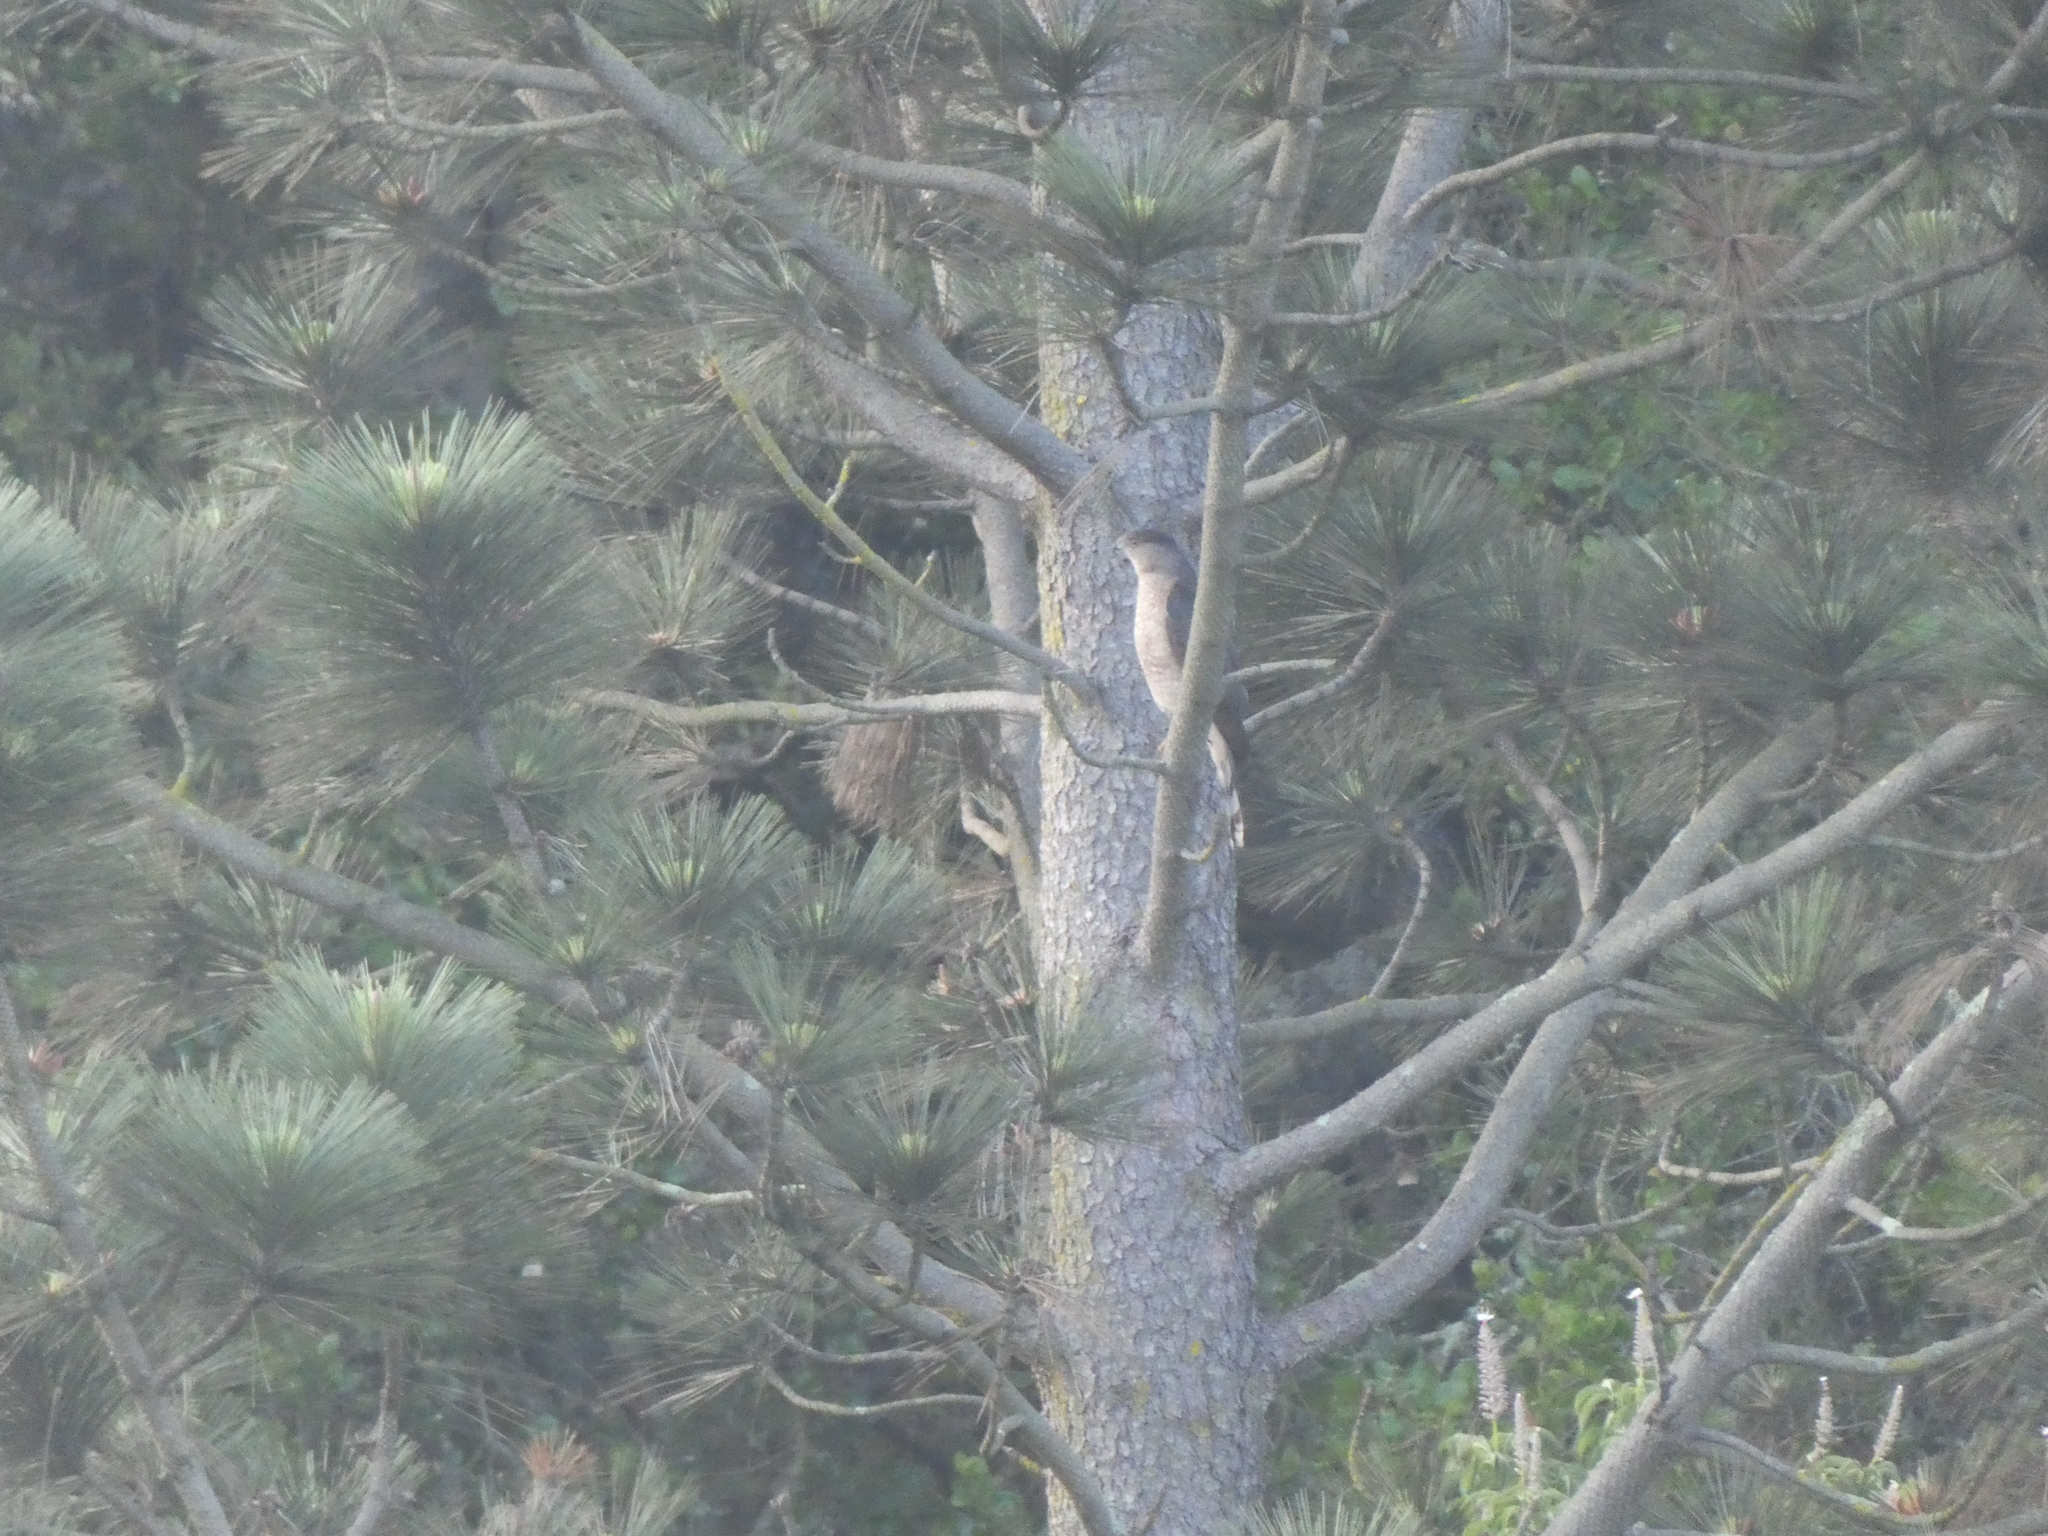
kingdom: Animalia
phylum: Chordata
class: Aves
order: Accipitriformes
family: Accipitridae
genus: Accipiter
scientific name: Accipiter cooperii
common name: Cooper's hawk
